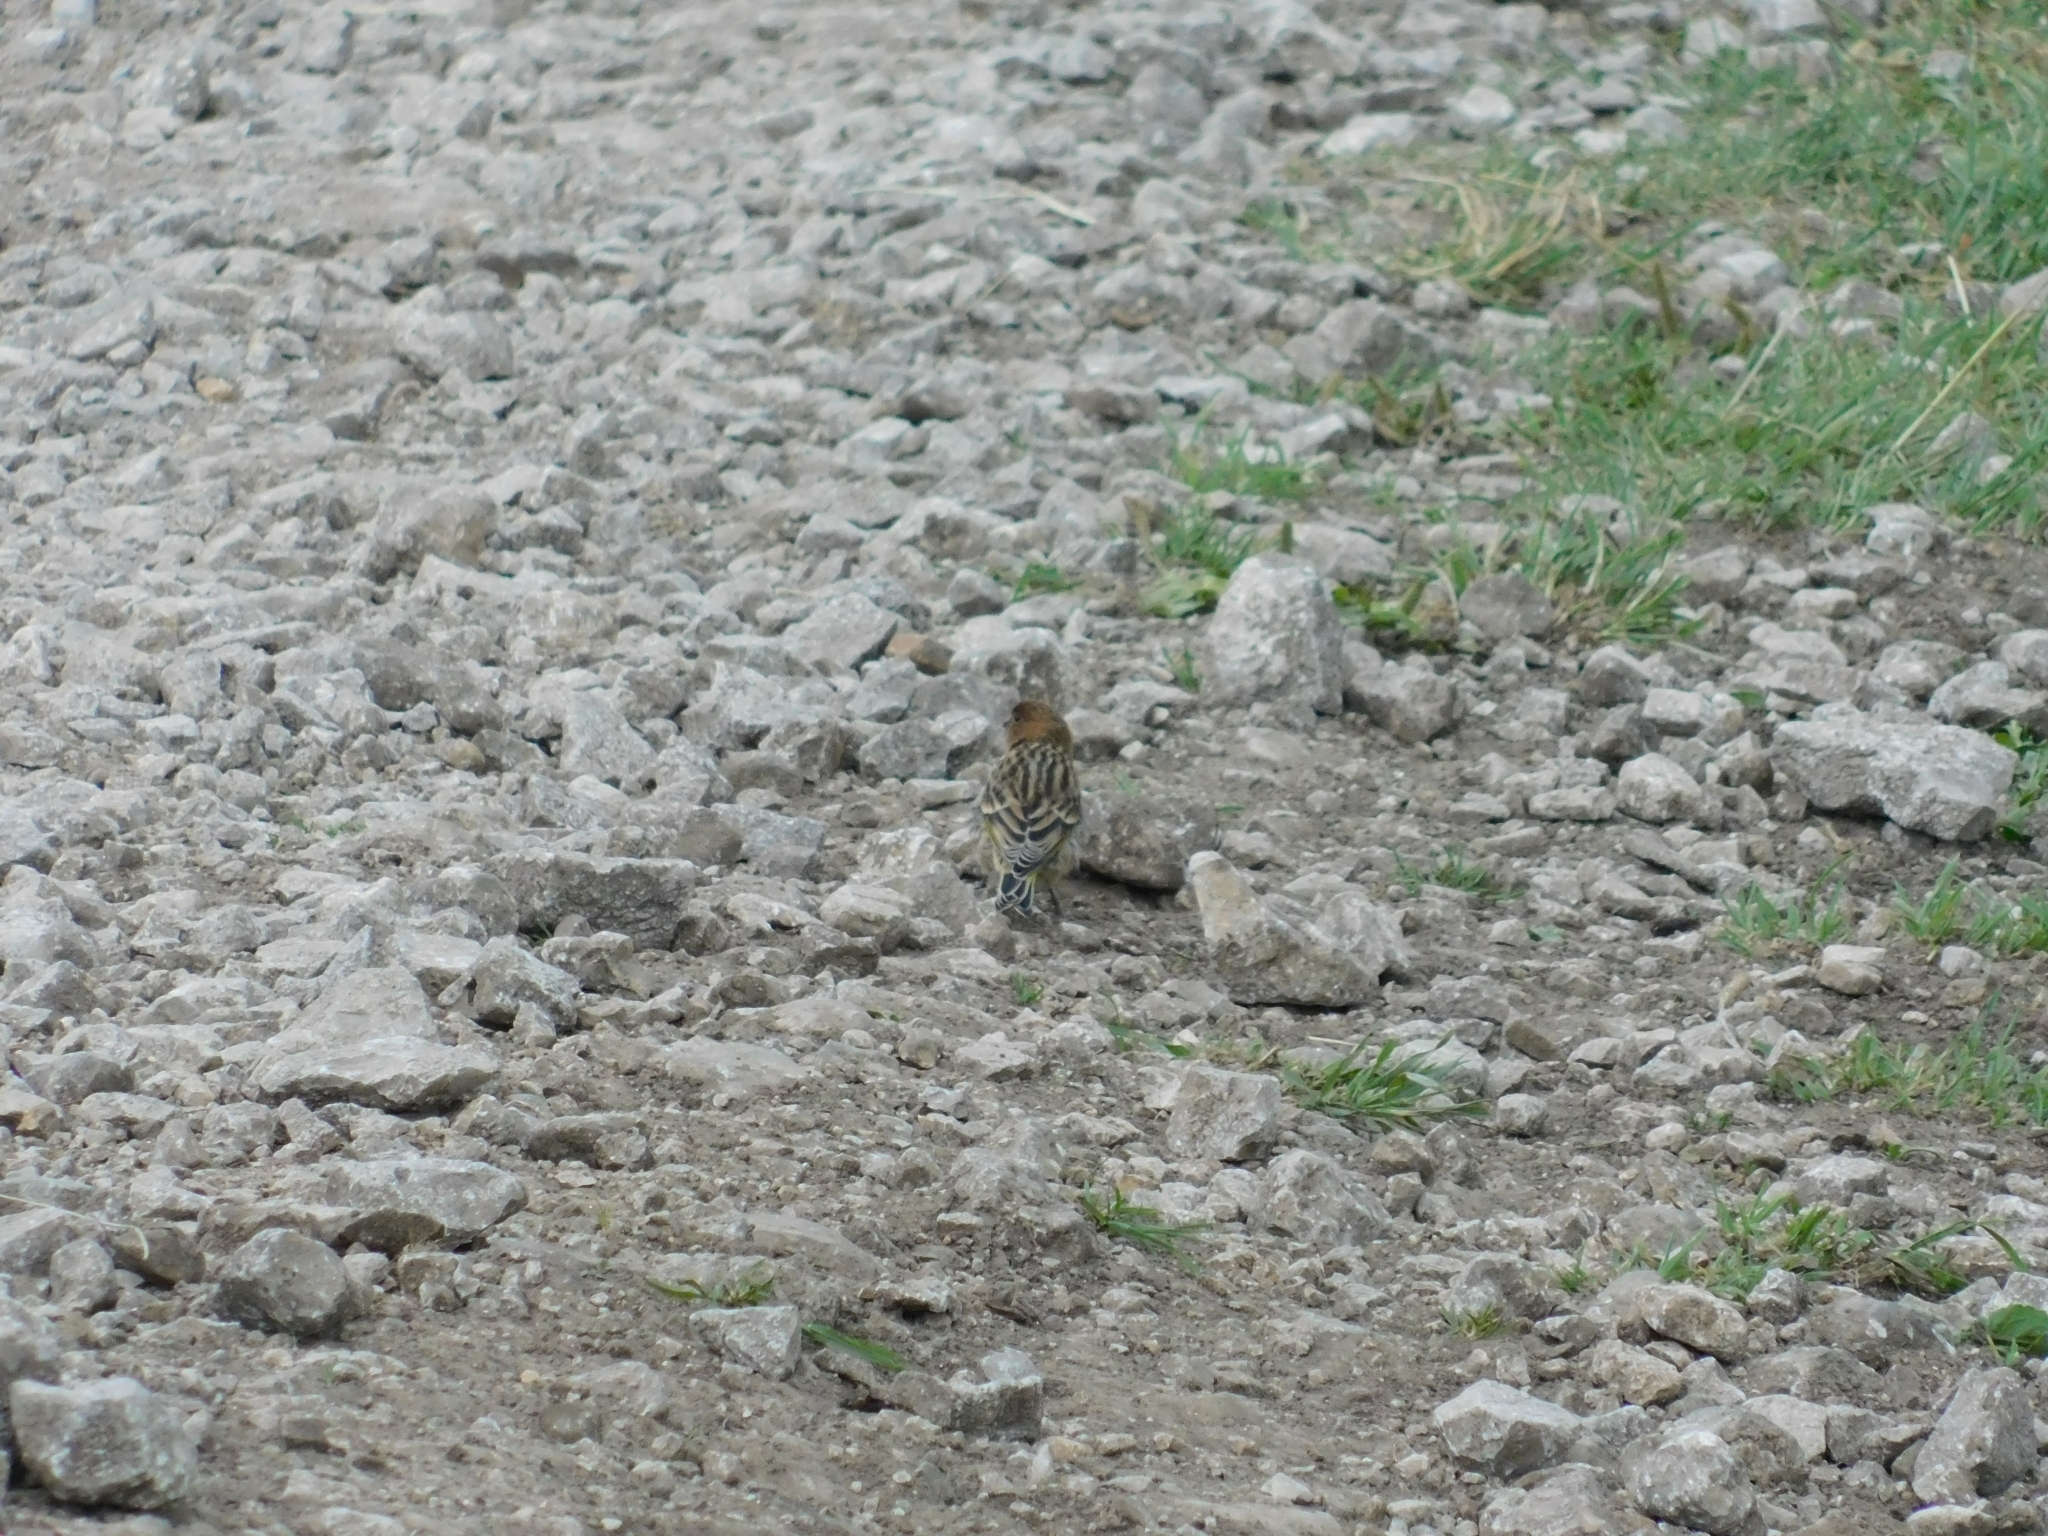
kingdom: Animalia
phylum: Chordata
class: Aves
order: Passeriformes
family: Fringillidae
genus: Serinus
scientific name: Serinus pusillus
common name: Red-fronted serin
